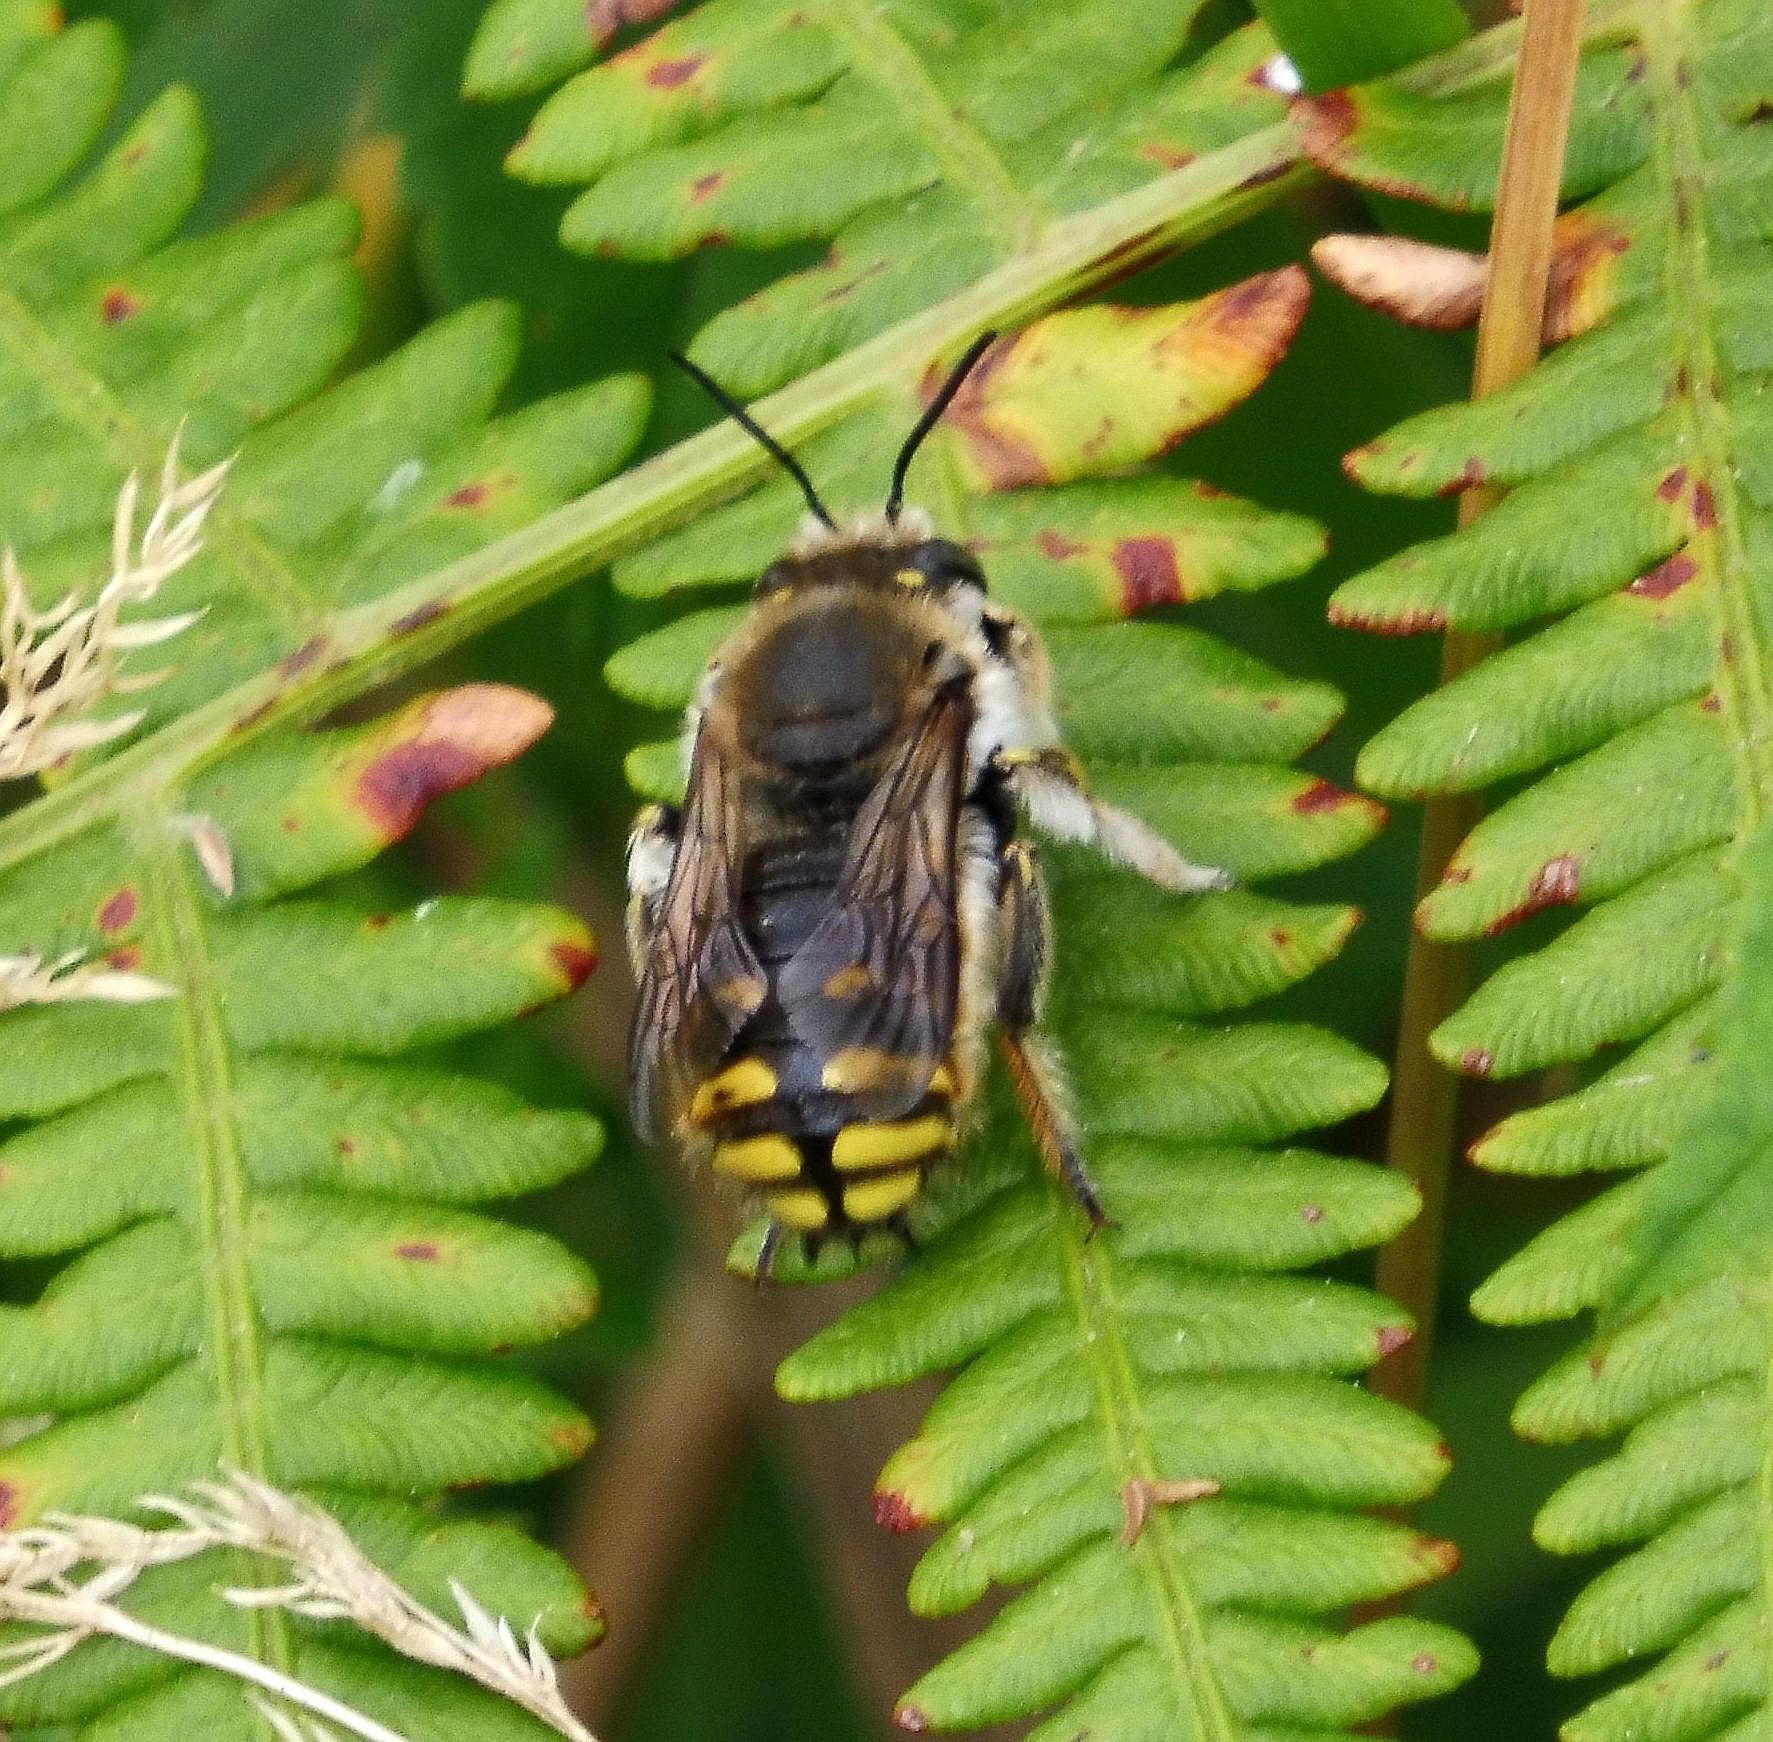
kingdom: Animalia
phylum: Arthropoda
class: Insecta
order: Hymenoptera
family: Megachilidae
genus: Anthidium
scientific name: Anthidium manicatum
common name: Wool carder bee
